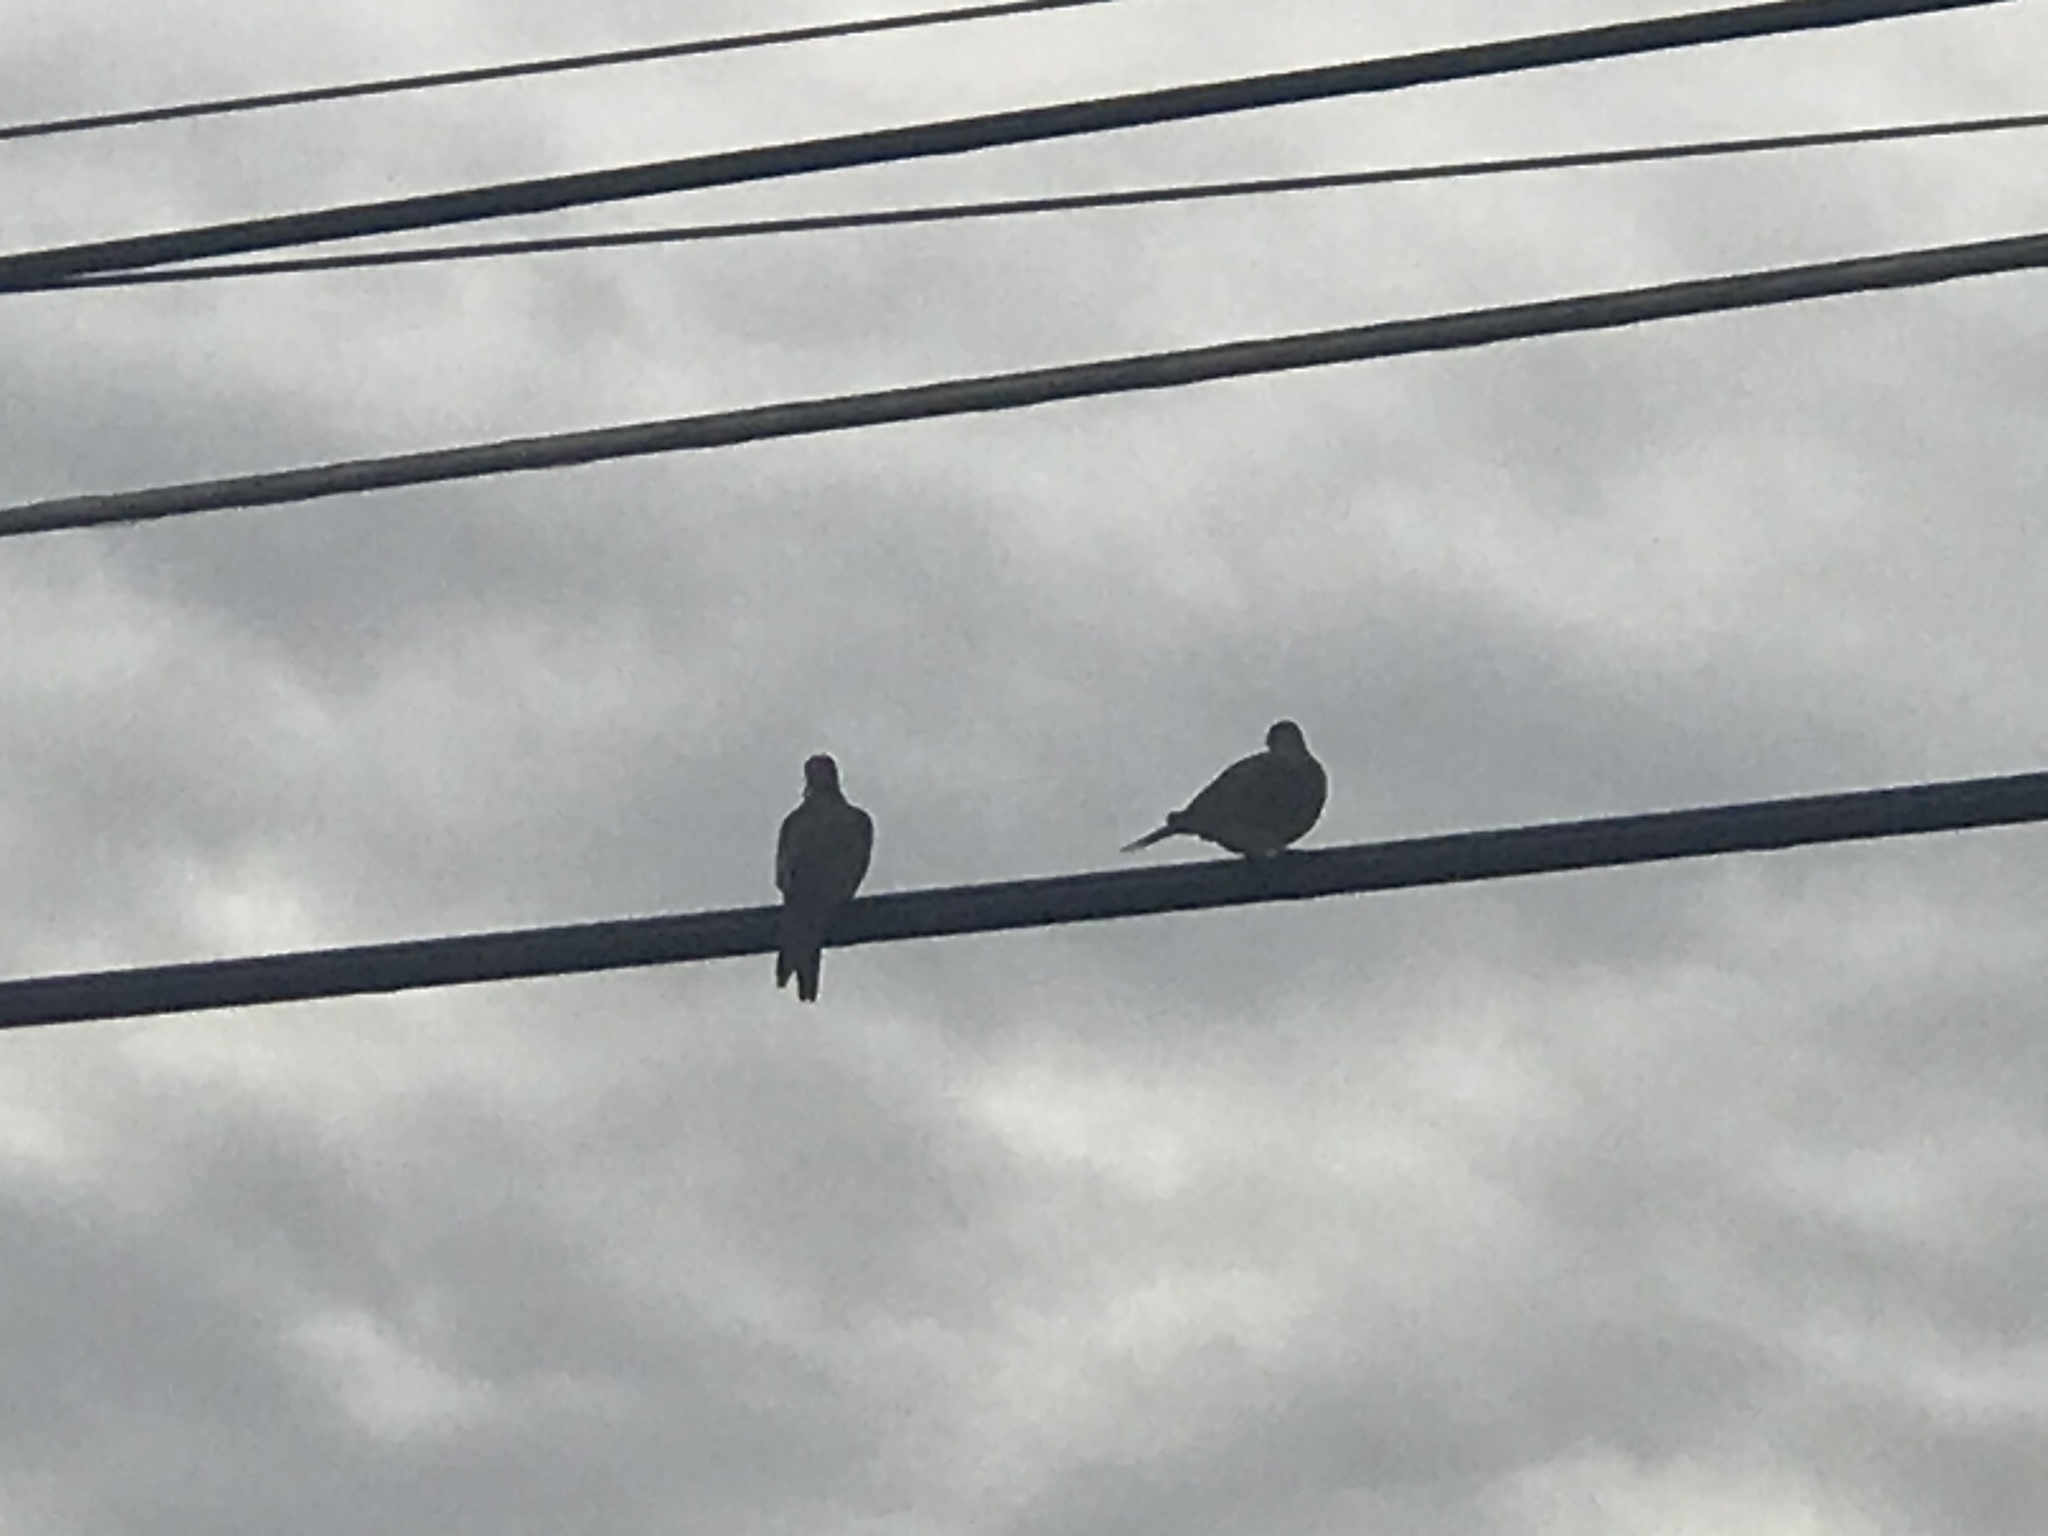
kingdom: Animalia
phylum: Chordata
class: Aves
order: Columbiformes
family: Columbidae
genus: Zenaida
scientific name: Zenaida macroura
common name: Mourning dove
